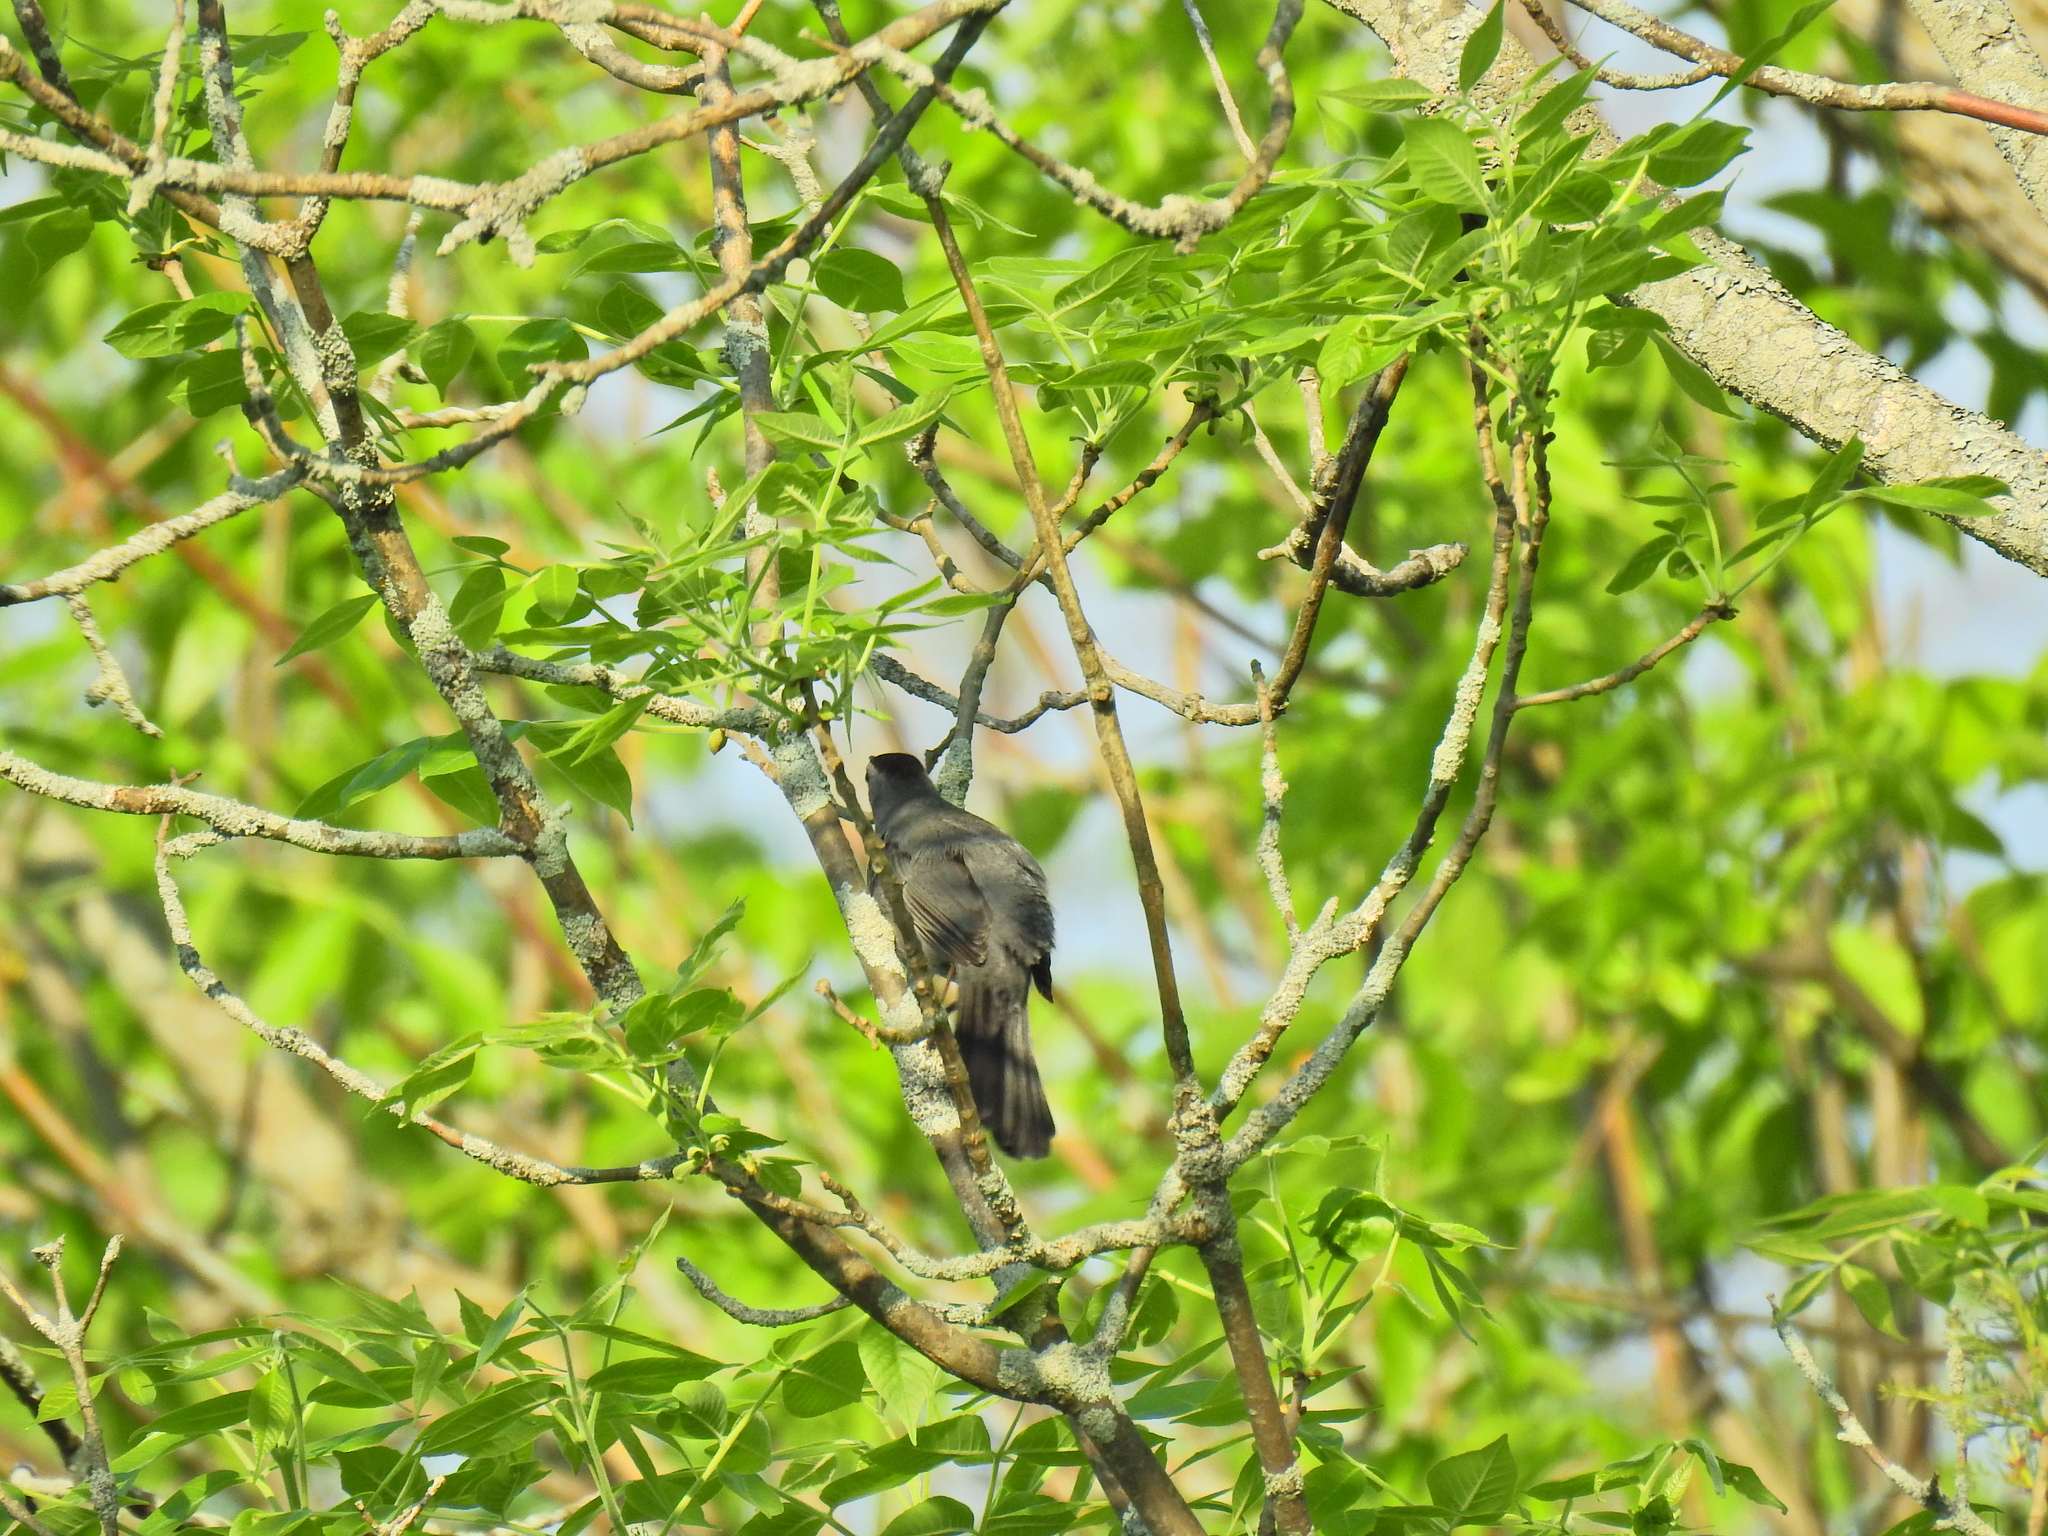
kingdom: Animalia
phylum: Chordata
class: Aves
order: Passeriformes
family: Mimidae
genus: Dumetella
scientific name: Dumetella carolinensis
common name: Gray catbird
